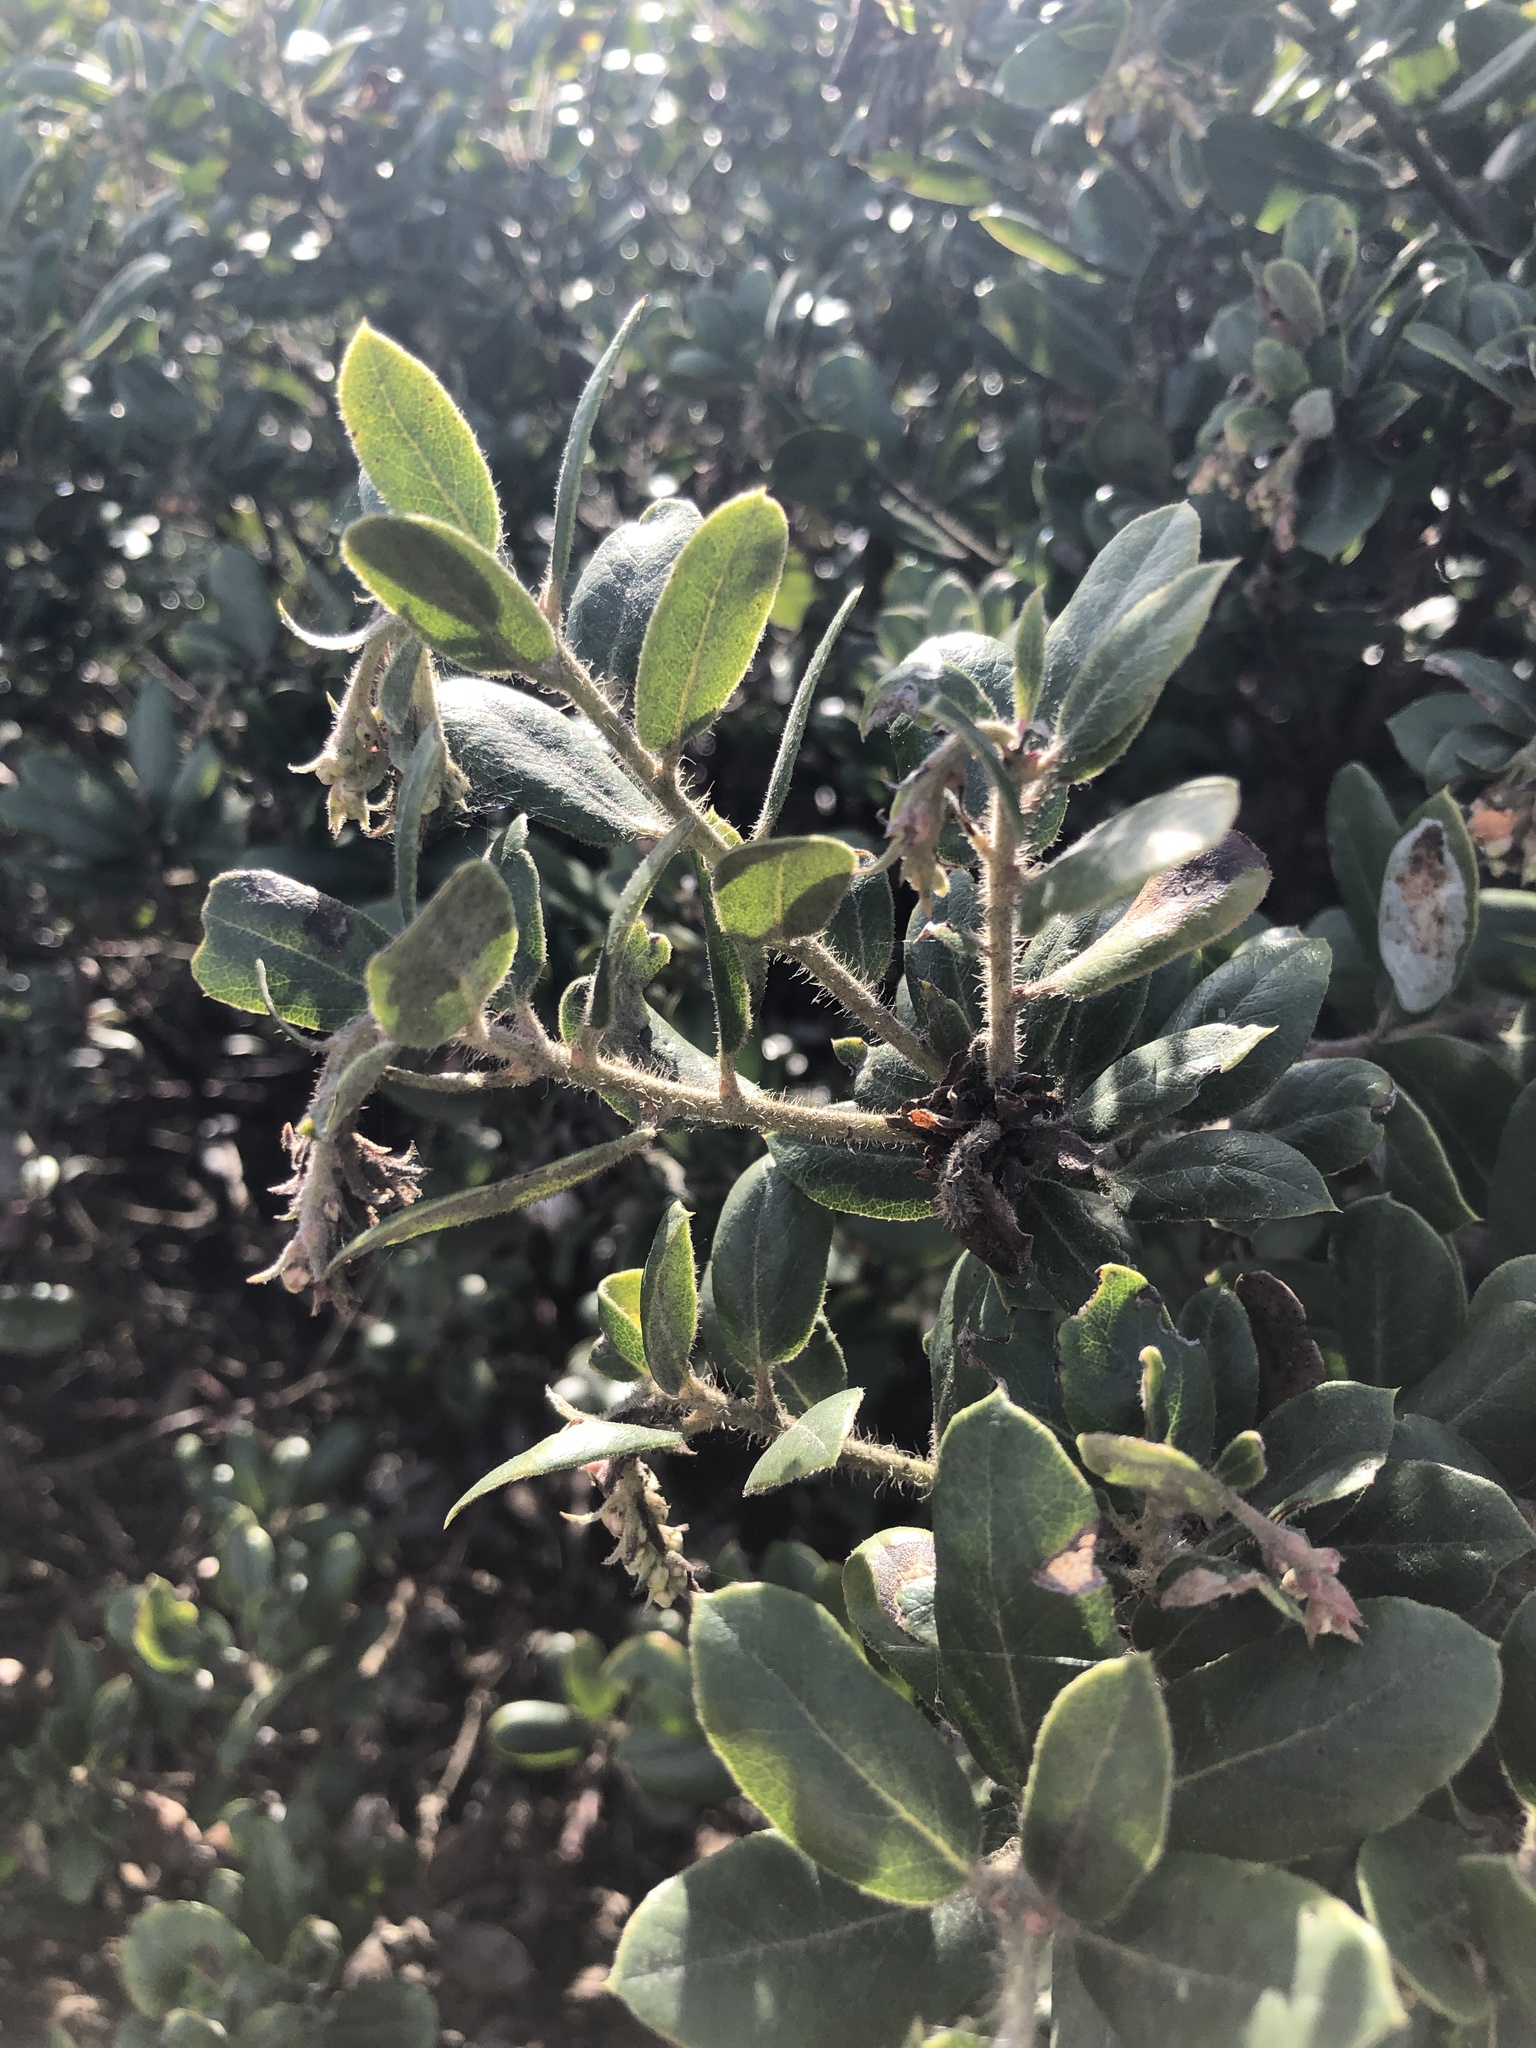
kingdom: Plantae
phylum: Tracheophyta
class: Magnoliopsida
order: Ericales
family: Ericaceae
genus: Arctostaphylos
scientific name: Arctostaphylos tomentosa
